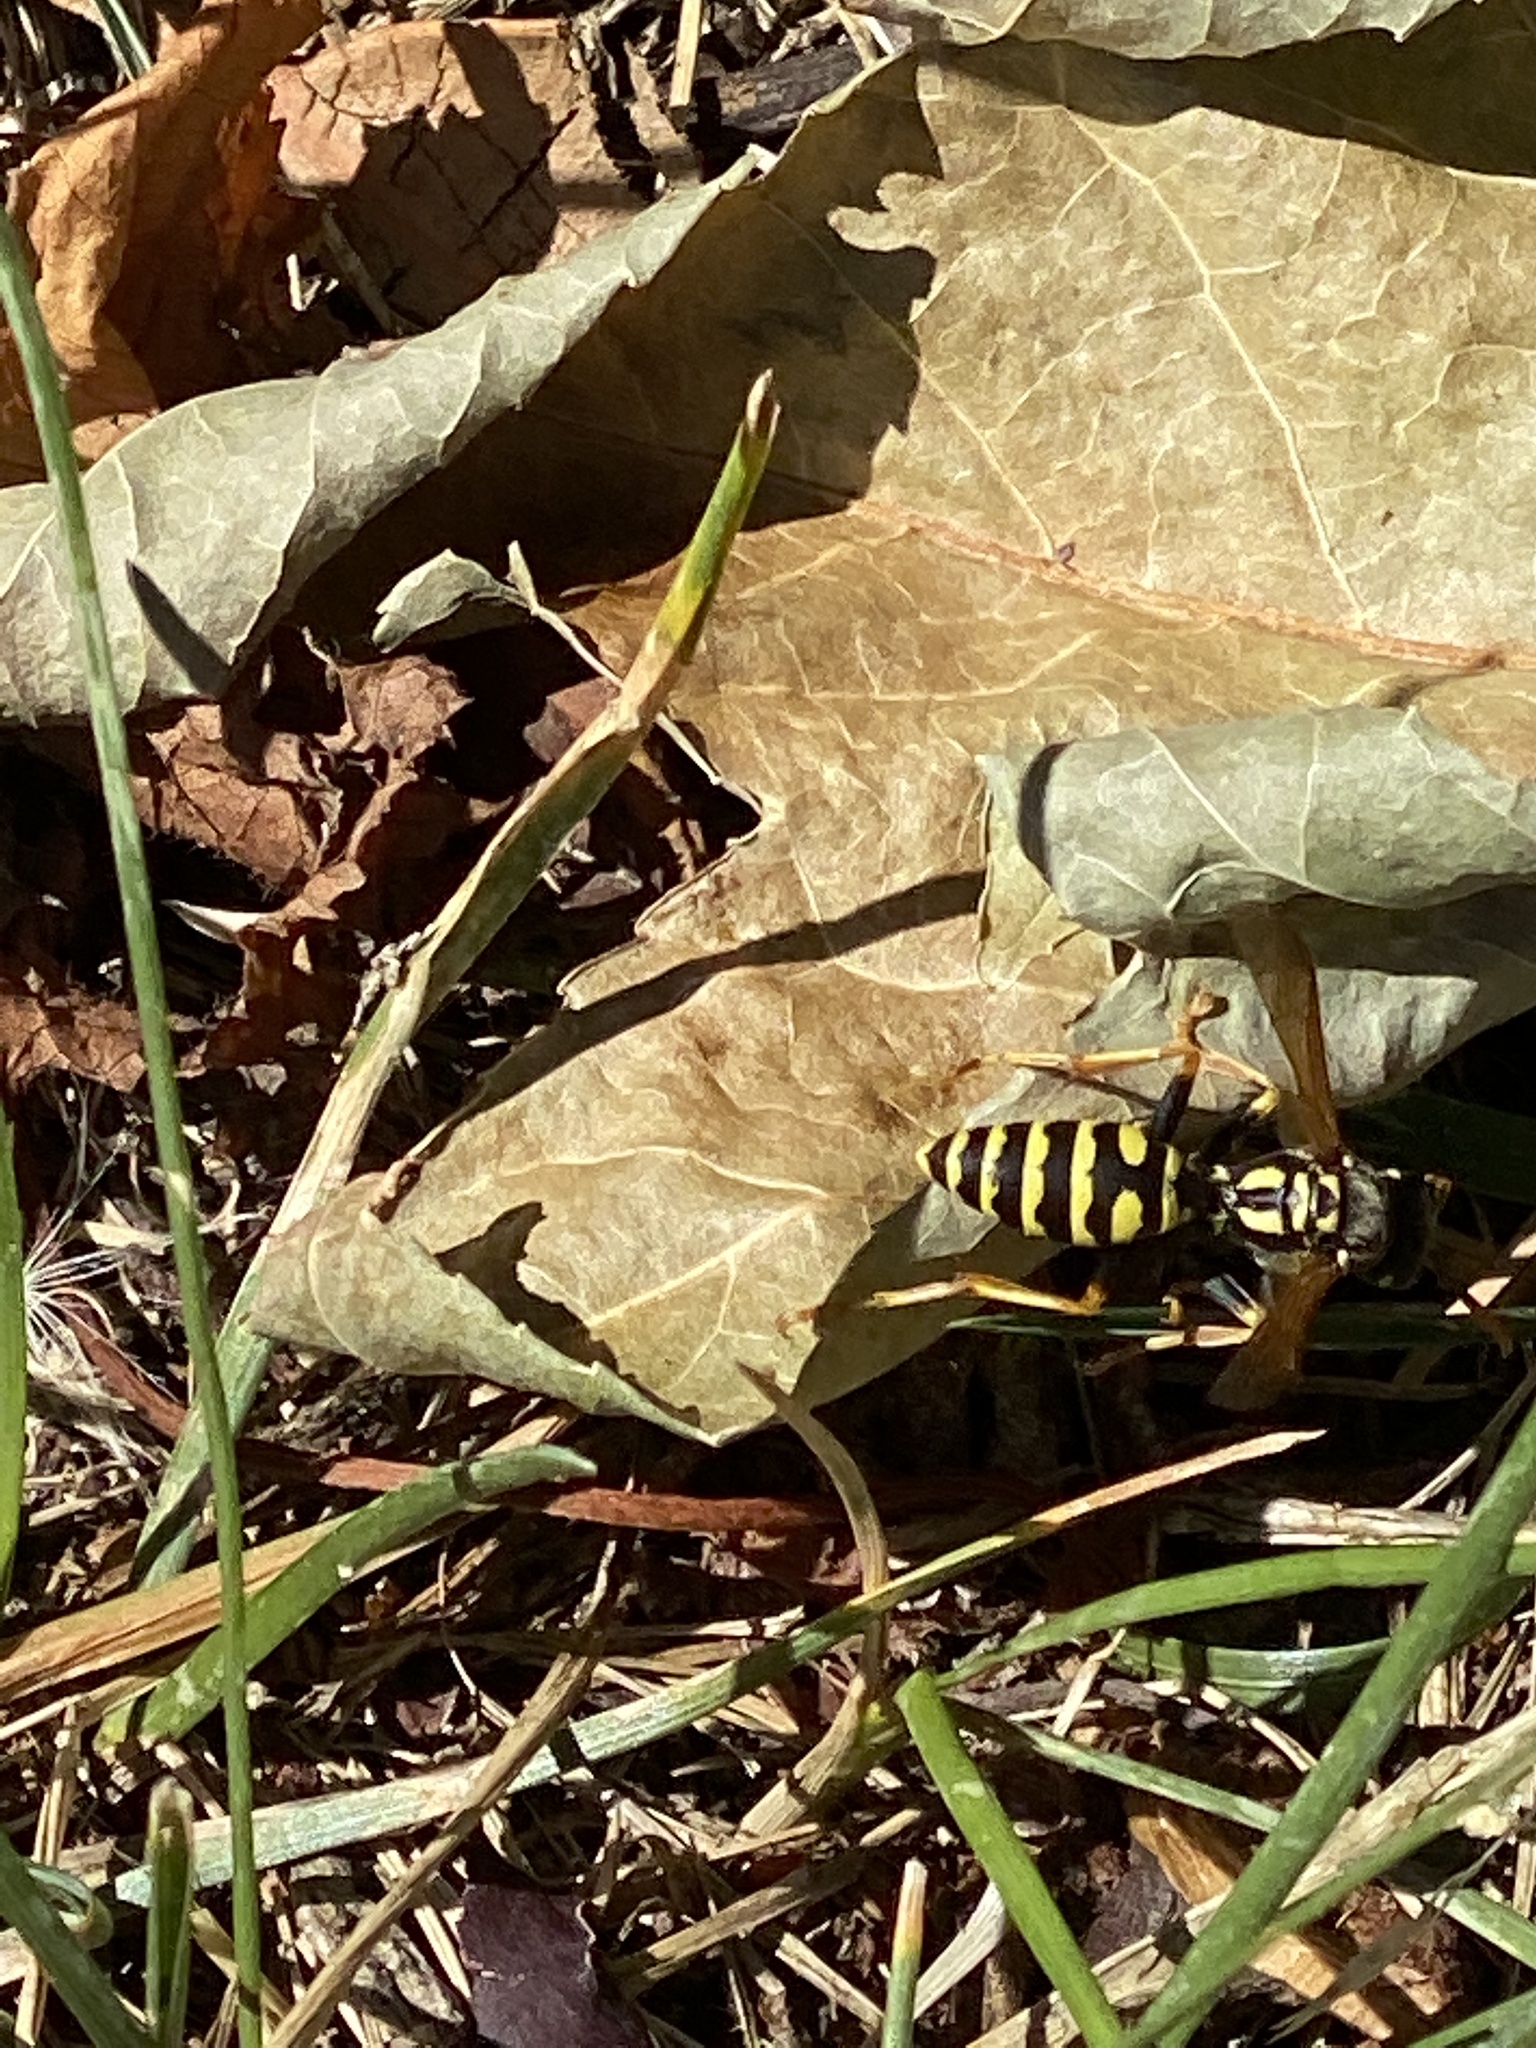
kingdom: Animalia
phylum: Arthropoda
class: Insecta
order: Hymenoptera
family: Eumenidae
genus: Polistes
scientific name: Polistes dominula
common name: Paper wasp
